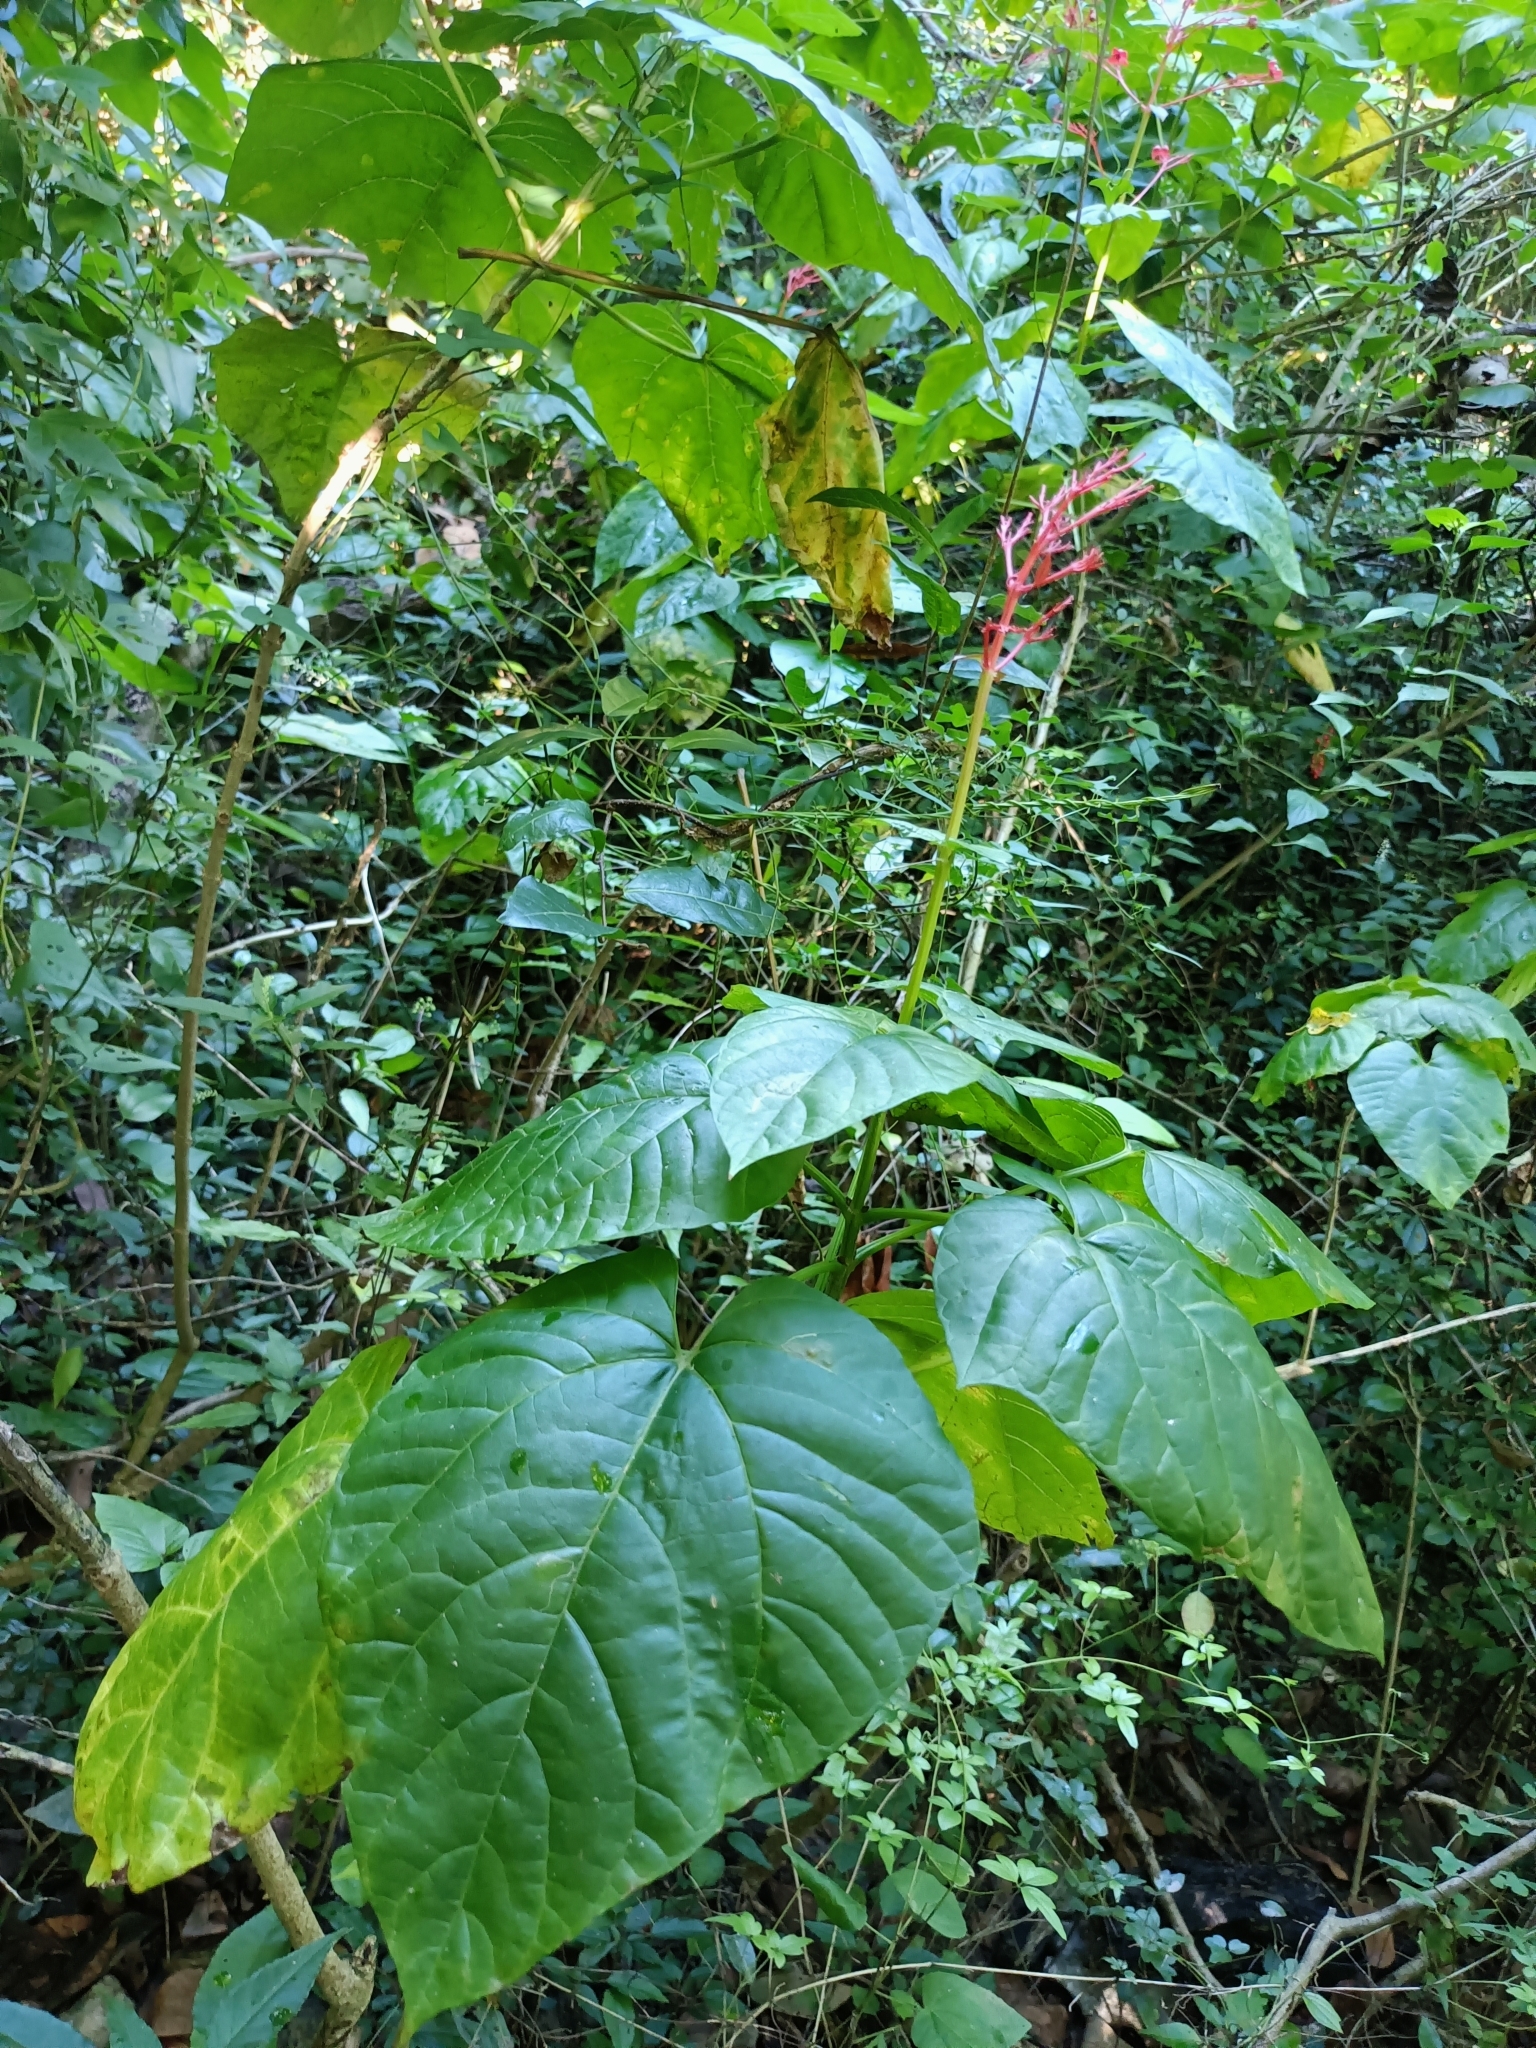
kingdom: Plantae
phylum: Tracheophyta
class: Magnoliopsida
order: Lamiales
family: Lamiaceae
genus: Clerodendrum
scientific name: Clerodendrum japonicum
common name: Japanese glorybower
